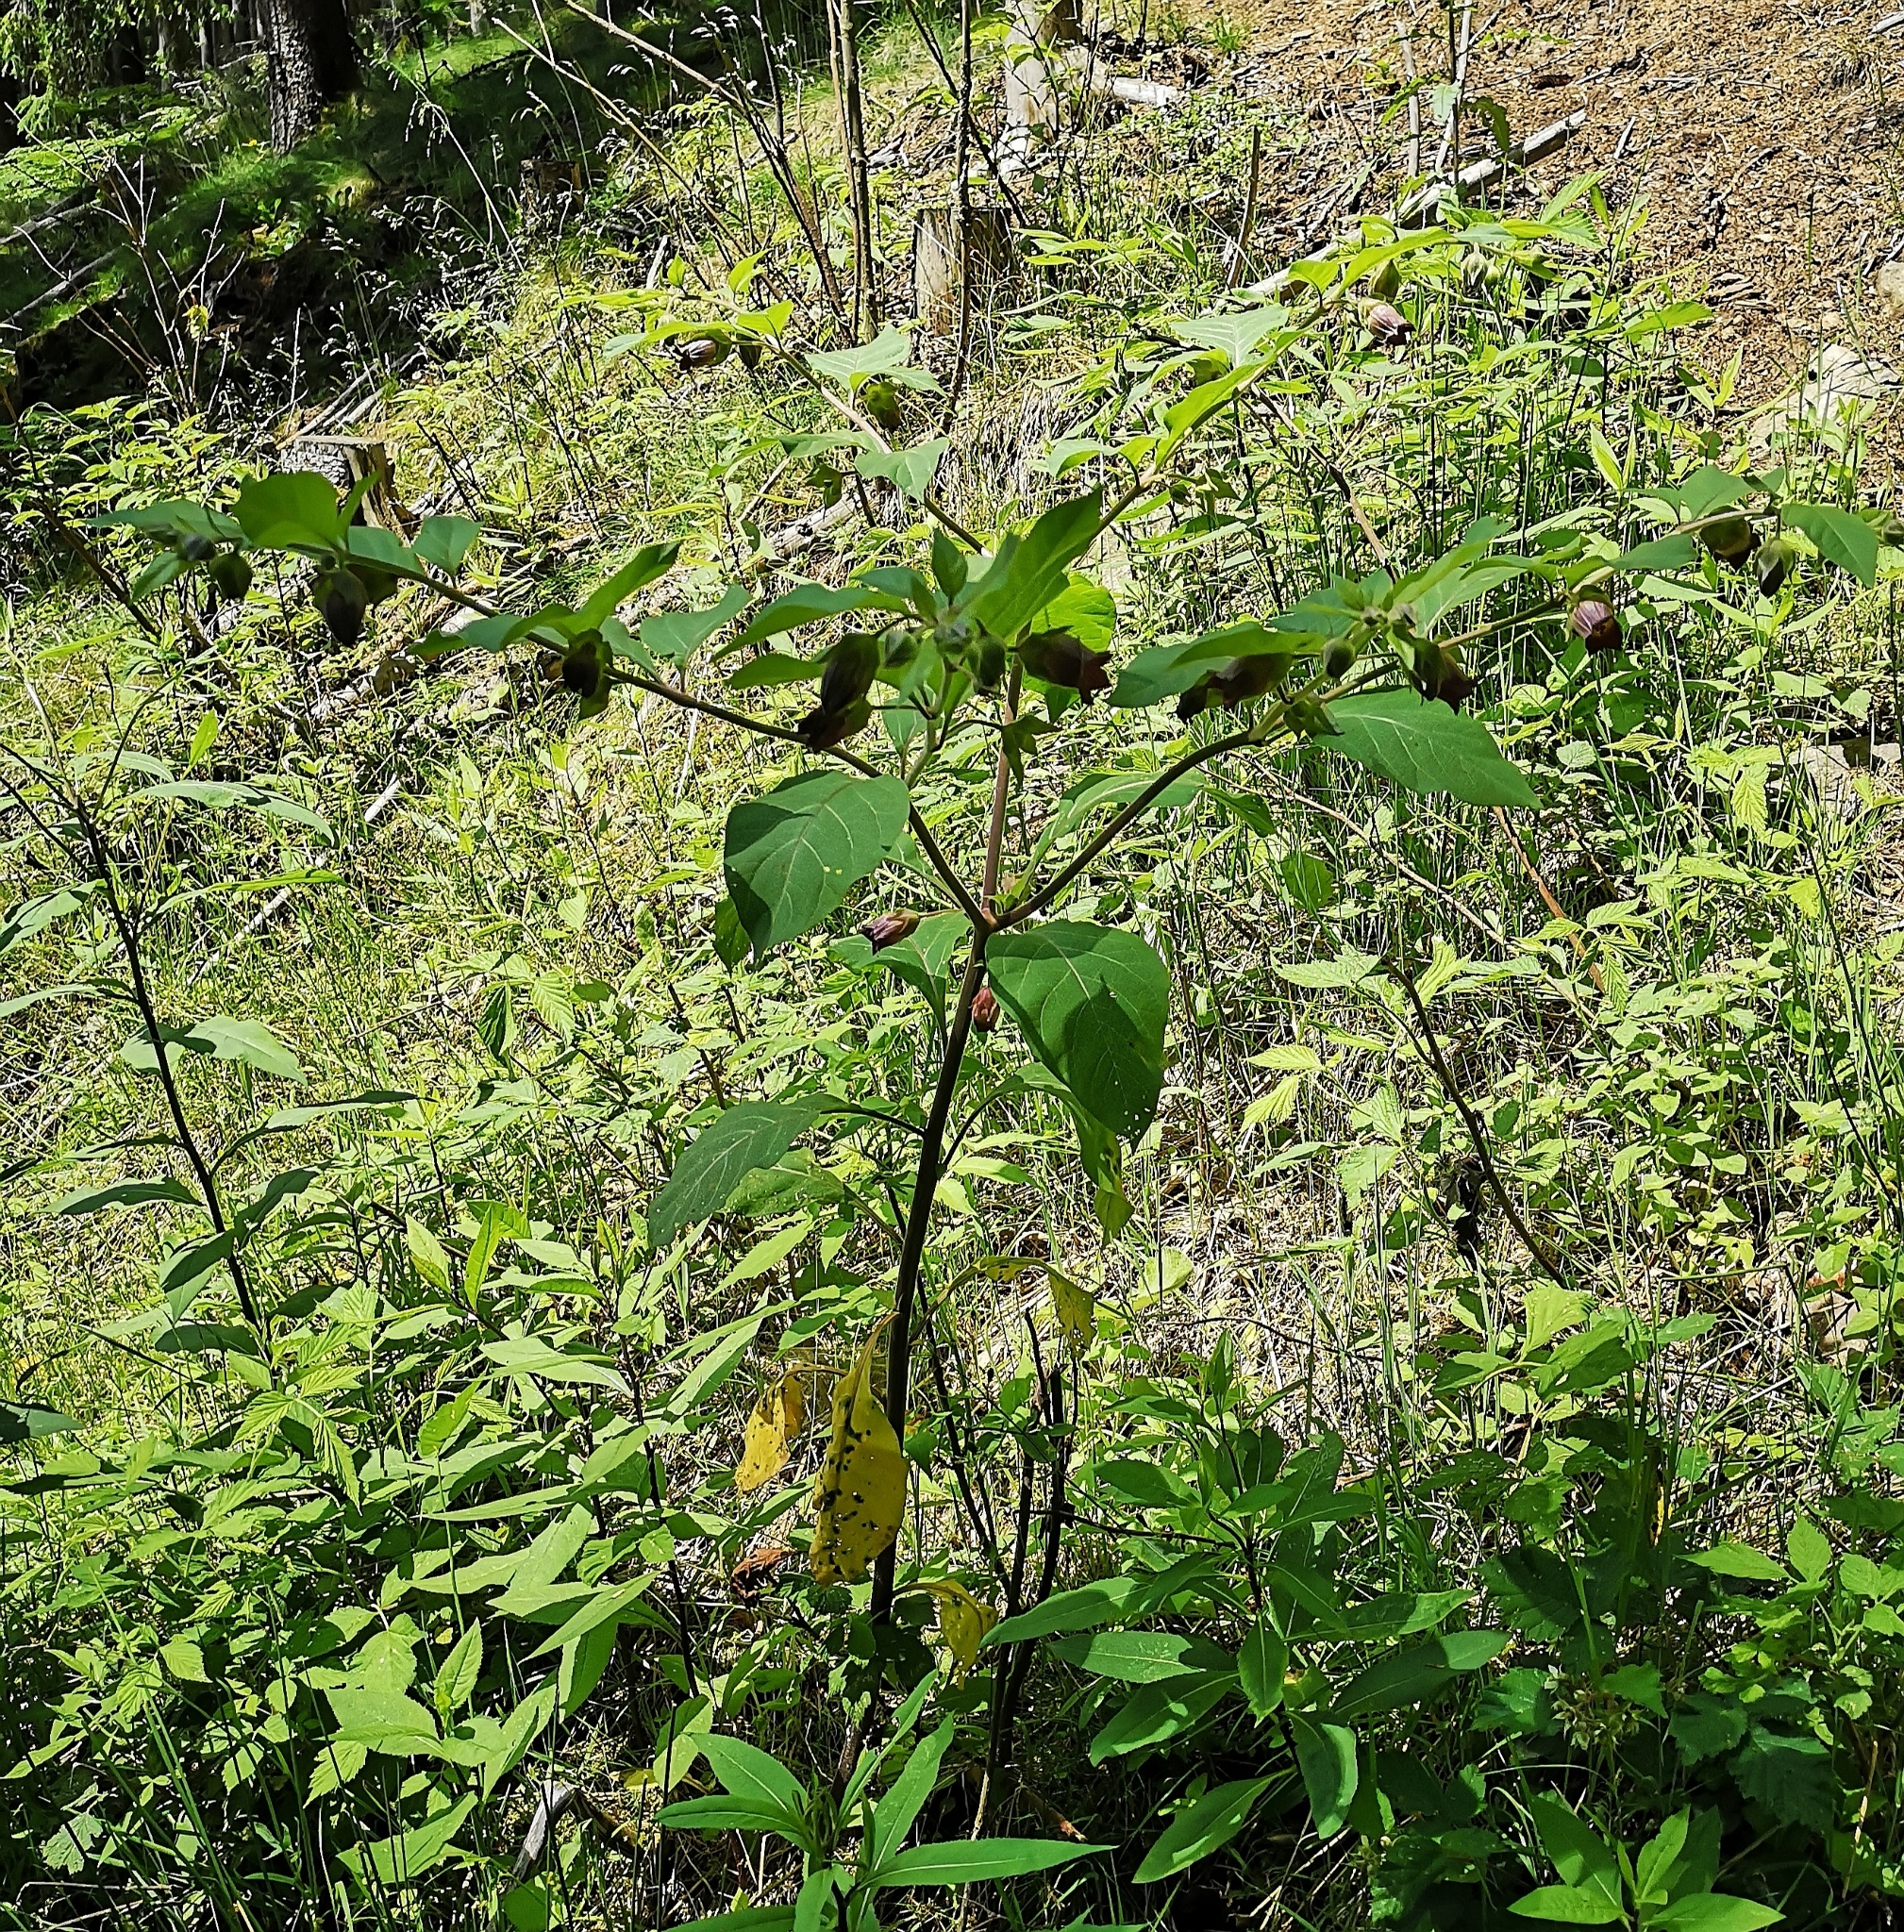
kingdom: Plantae
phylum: Tracheophyta
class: Magnoliopsida
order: Solanales
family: Solanaceae
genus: Atropa
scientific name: Atropa belladonna
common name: Deadly nightshade
